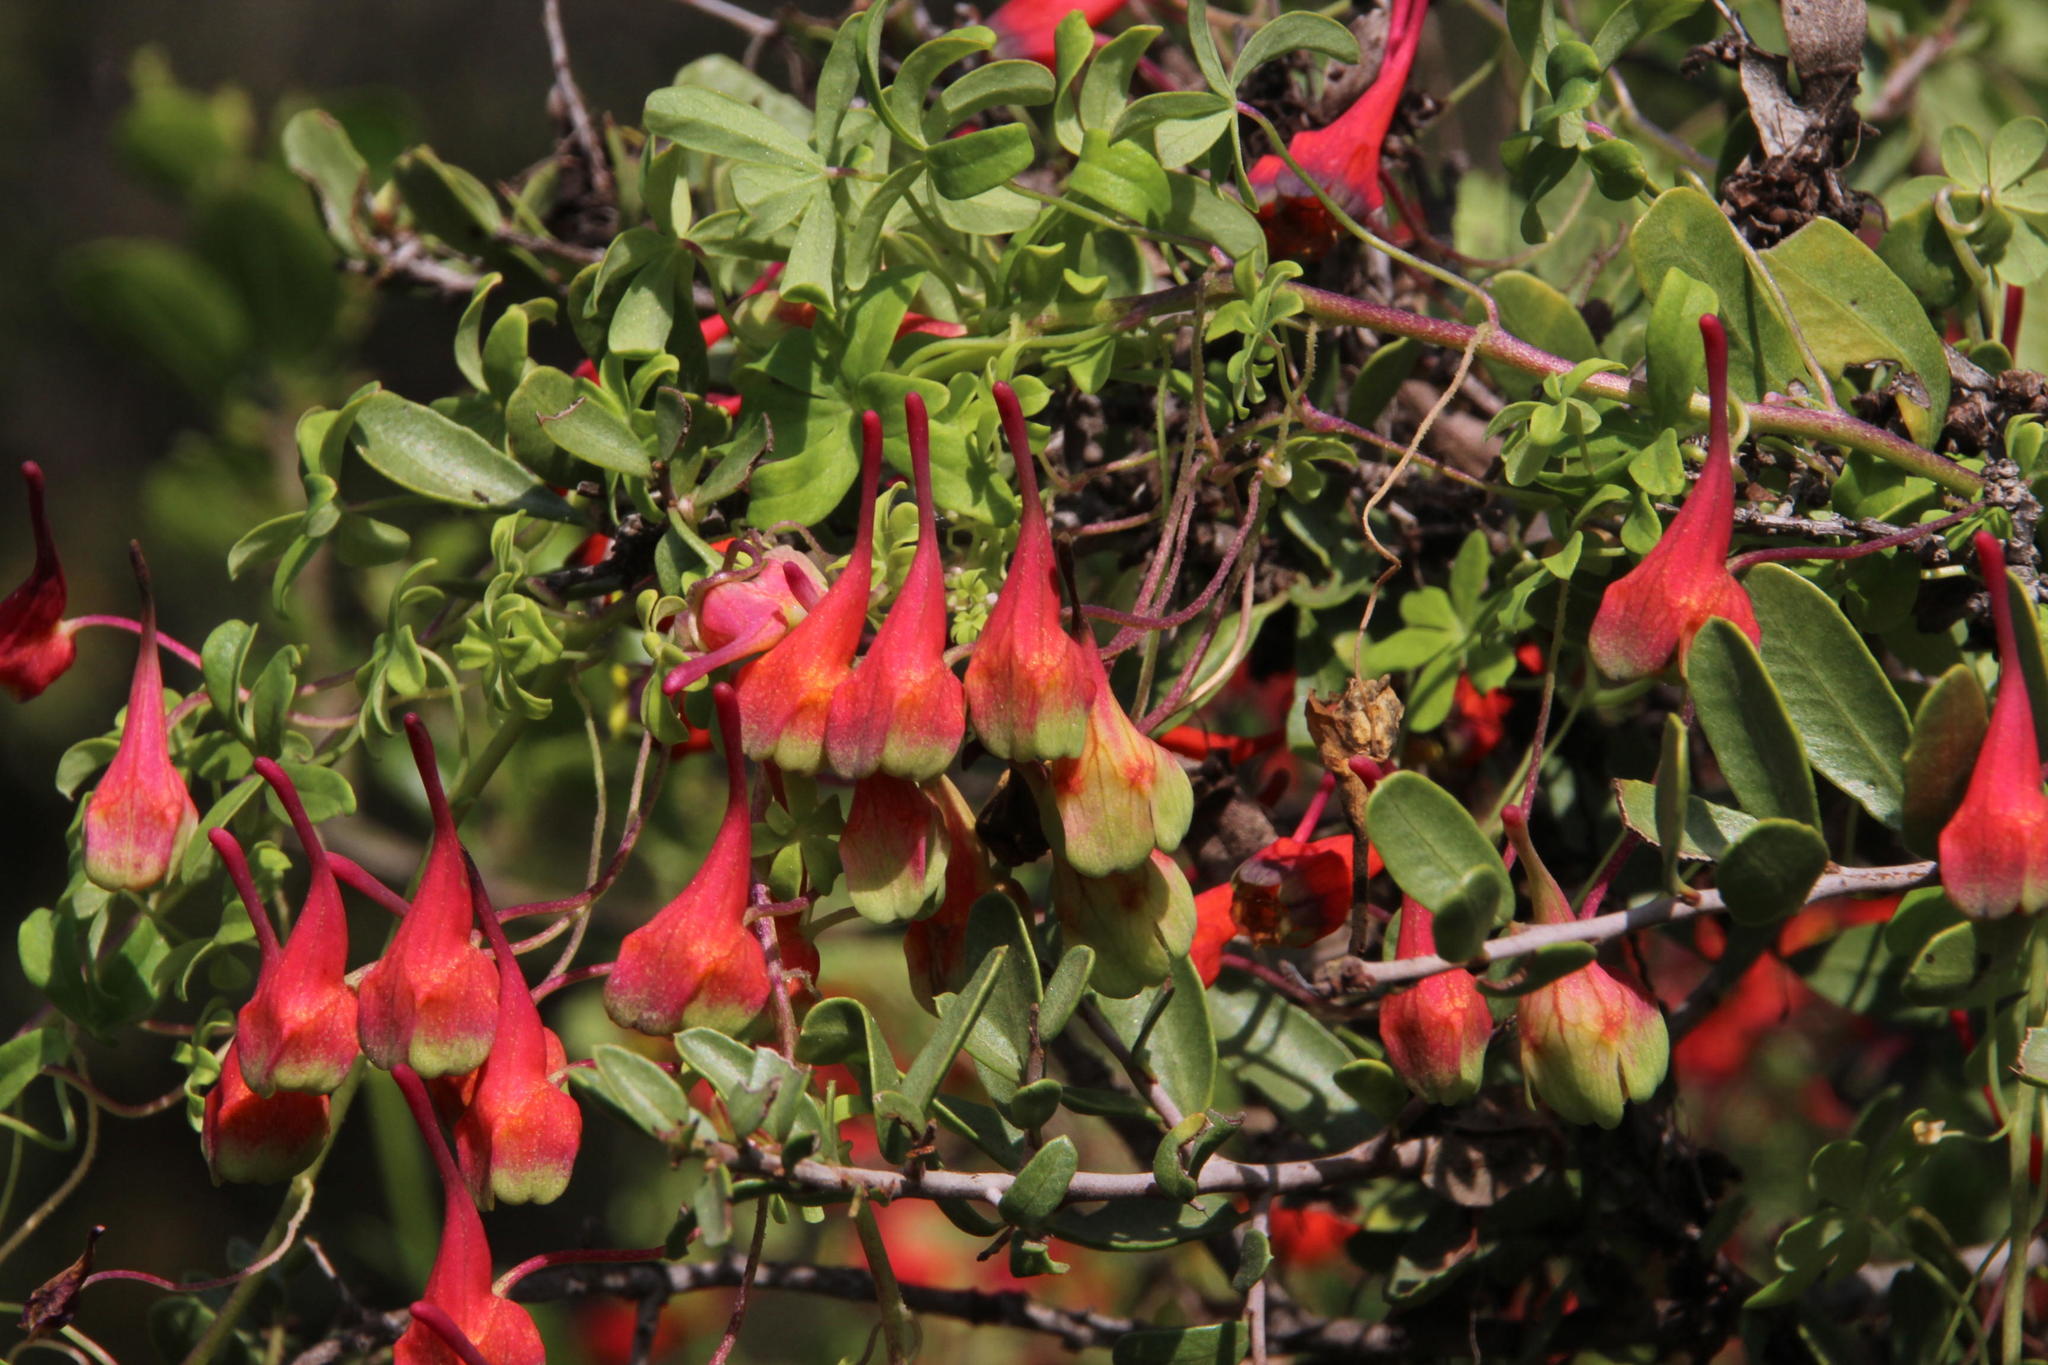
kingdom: Plantae
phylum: Tracheophyta
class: Magnoliopsida
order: Brassicales
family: Tropaeolaceae
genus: Tropaeolum
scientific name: Tropaeolum tricolor
